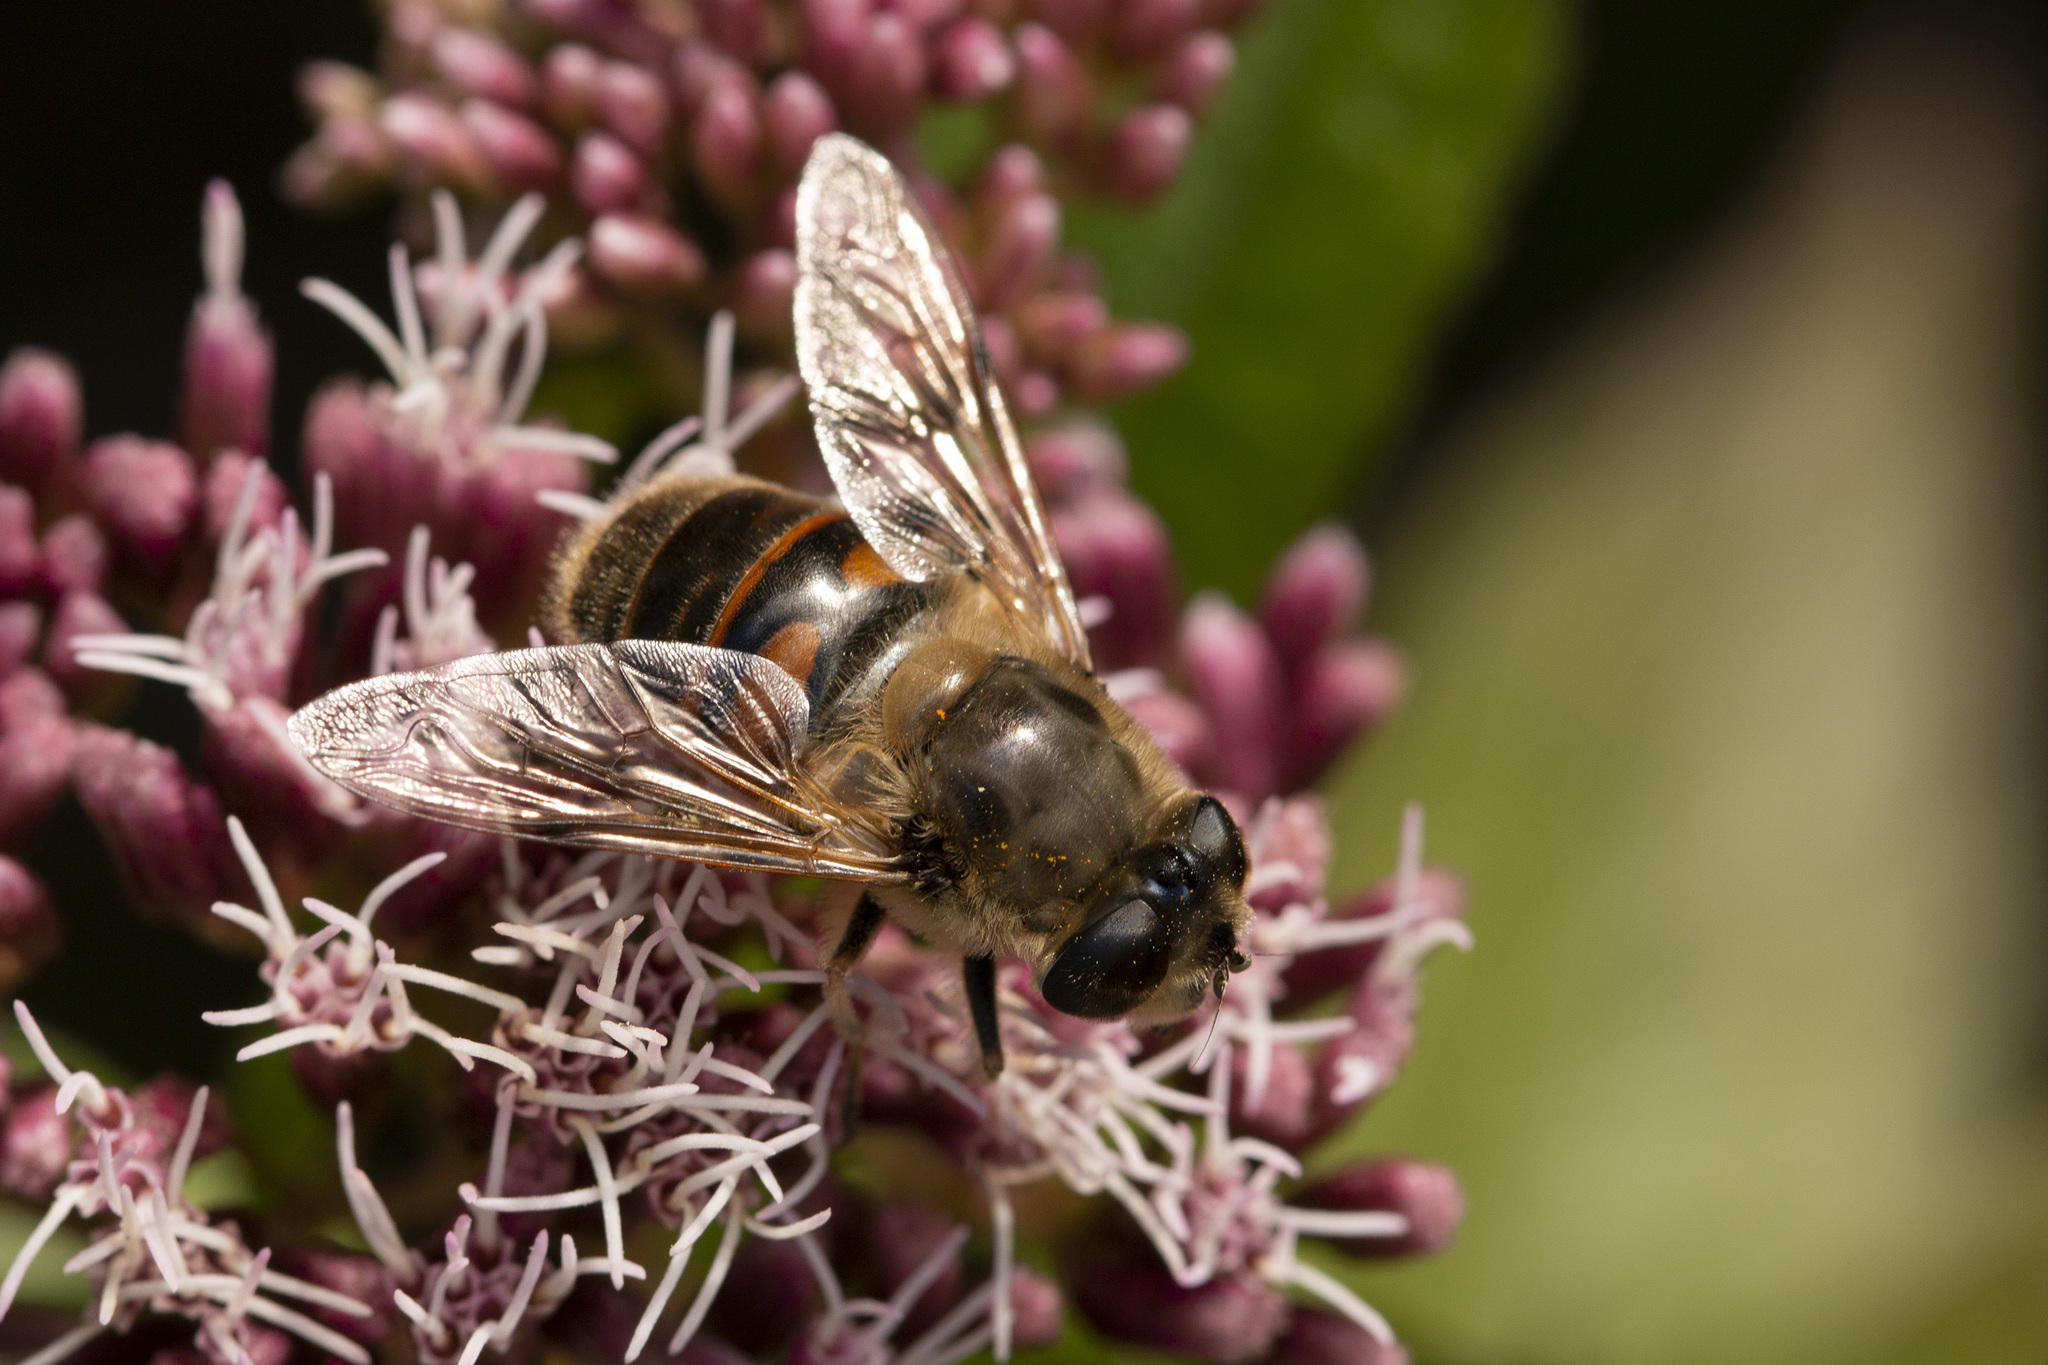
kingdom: Animalia
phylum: Arthropoda
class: Insecta
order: Diptera
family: Syrphidae
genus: Eristalis
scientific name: Eristalis tenax
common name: Drone fly
